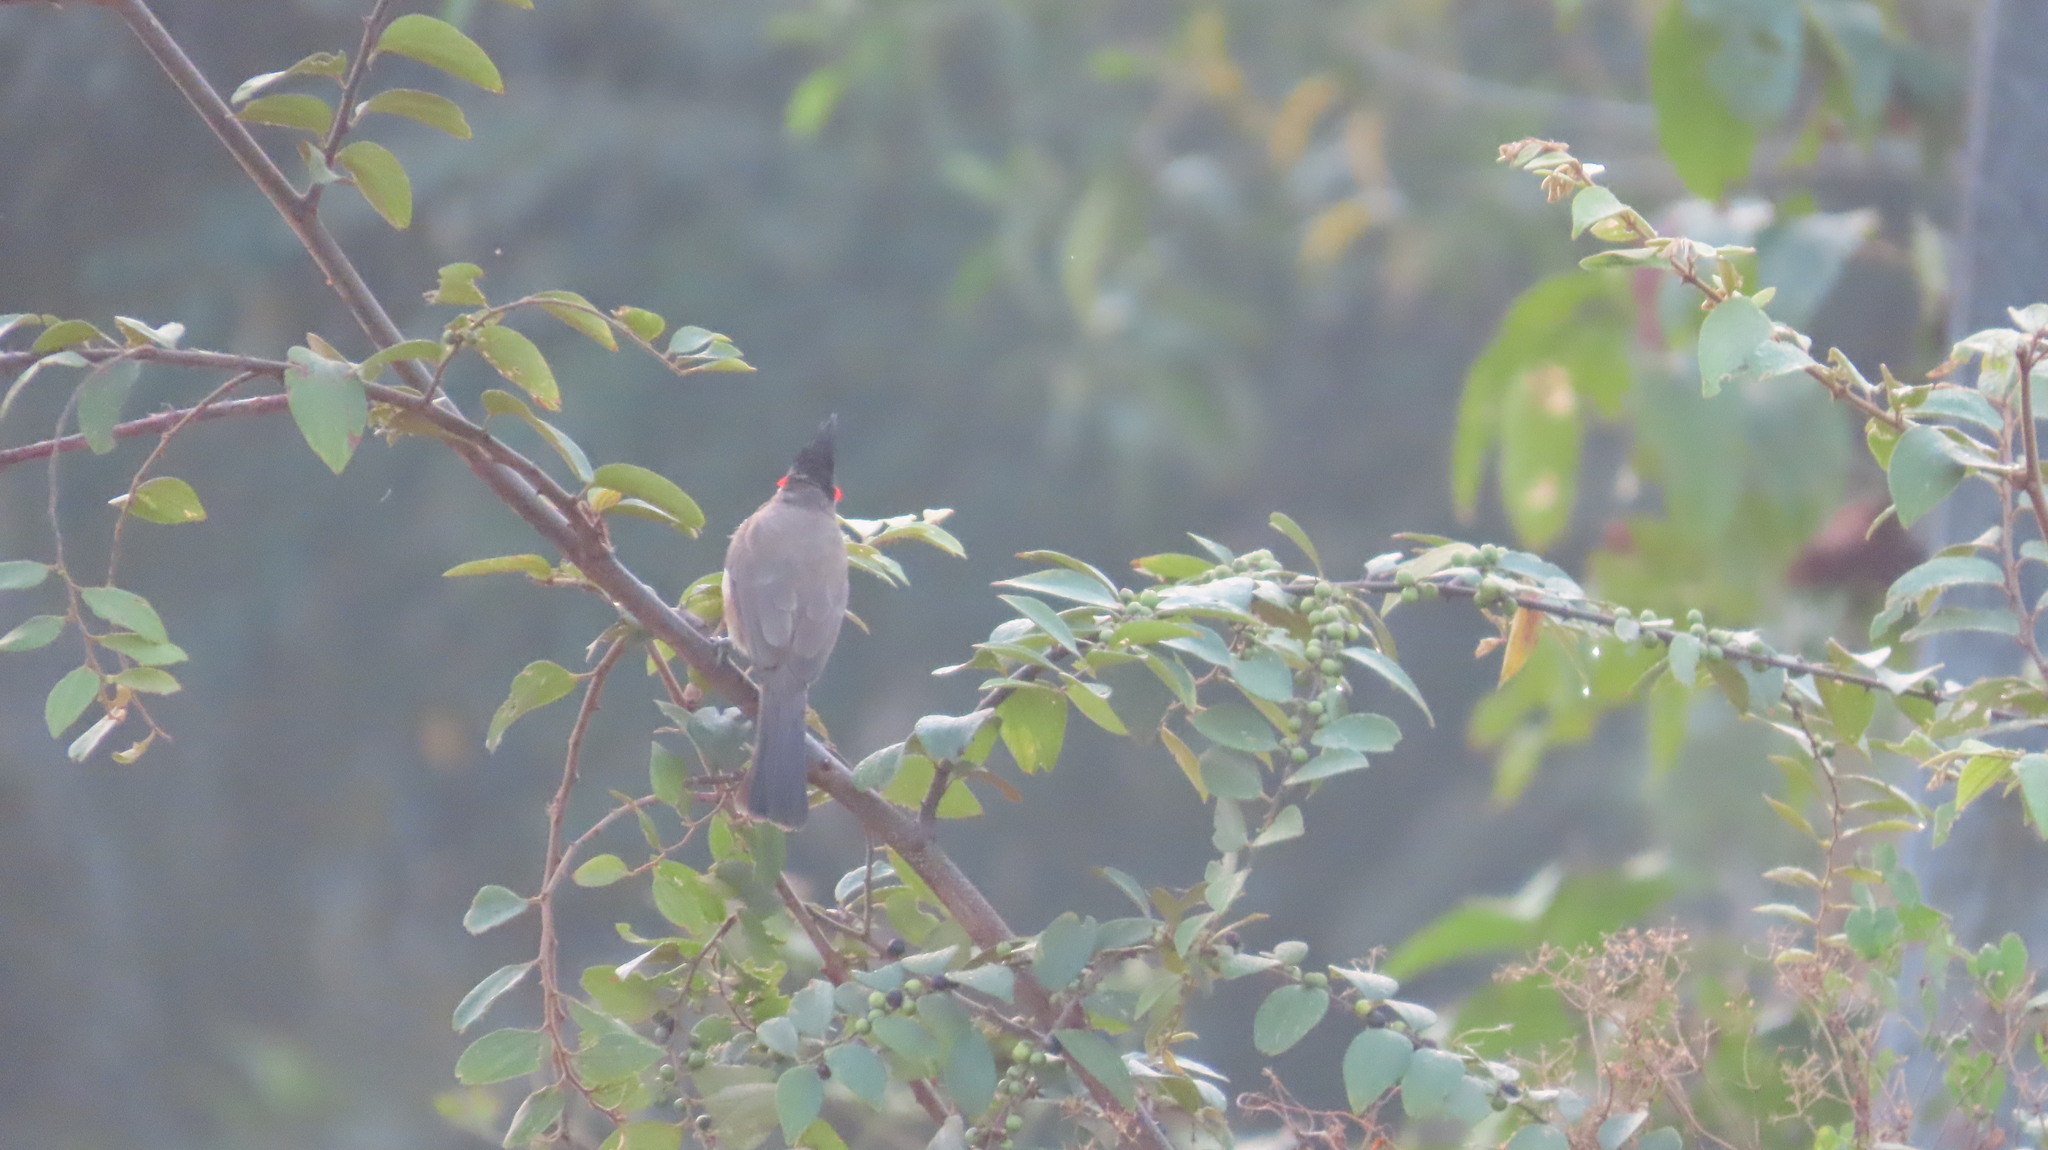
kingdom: Animalia
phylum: Chordata
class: Aves
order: Passeriformes
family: Pycnonotidae
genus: Pycnonotus
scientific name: Pycnonotus jocosus
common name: Red-whiskered bulbul
